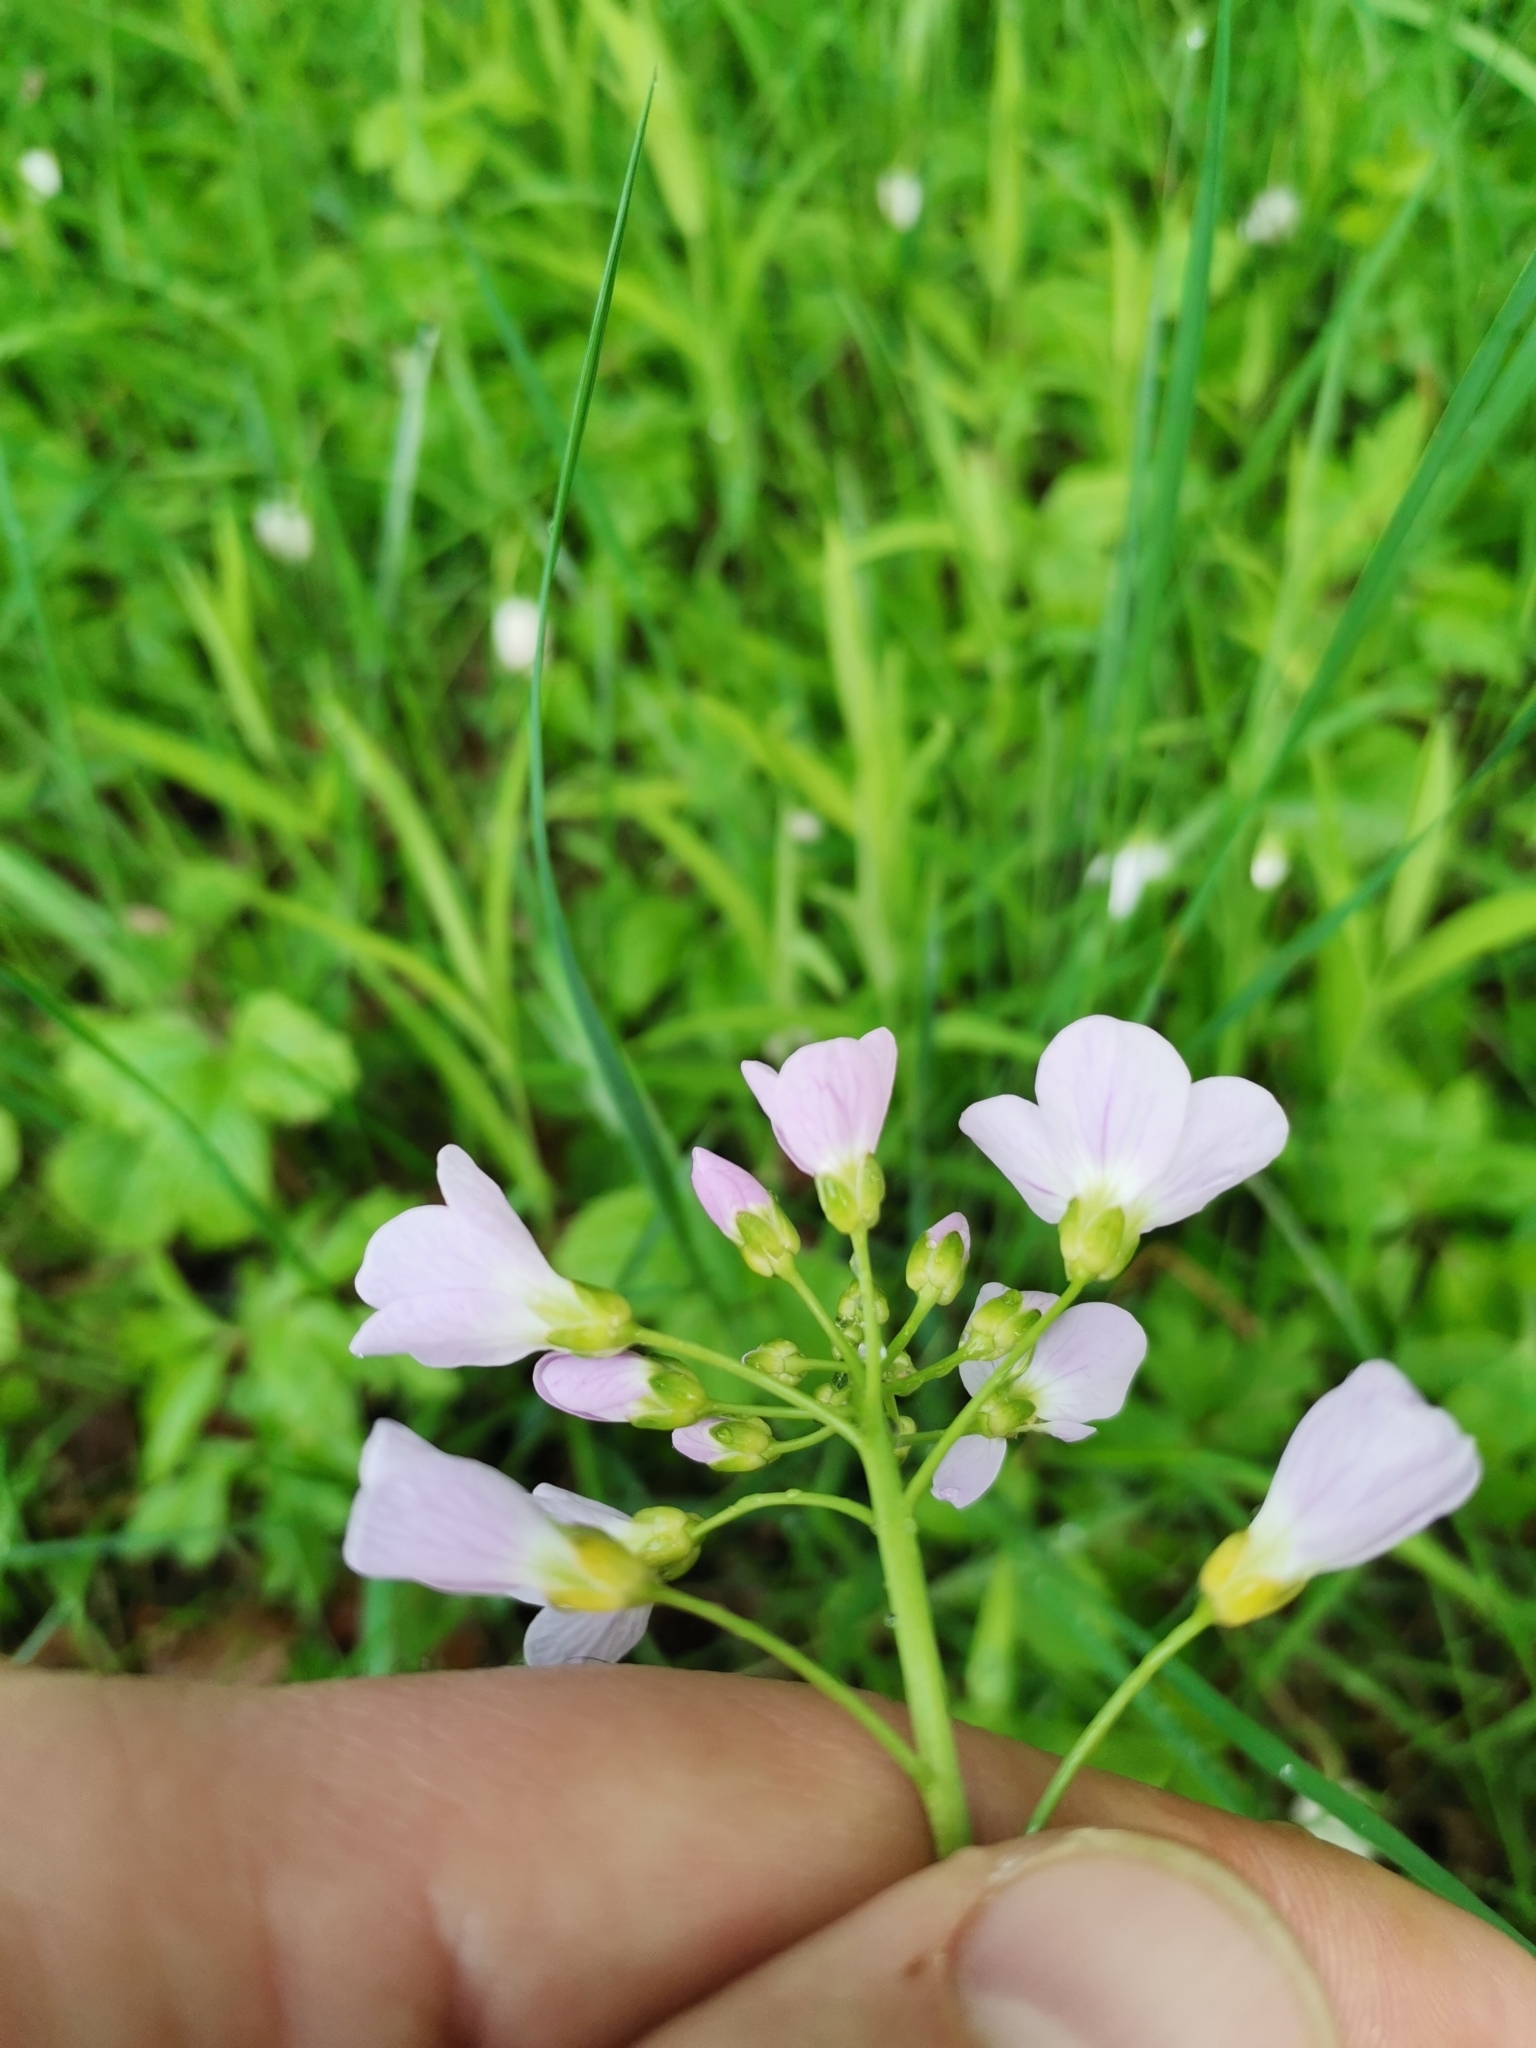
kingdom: Plantae
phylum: Tracheophyta
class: Magnoliopsida
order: Brassicales
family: Brassicaceae
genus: Cardamine
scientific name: Cardamine pratensis
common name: Cuckoo flower
